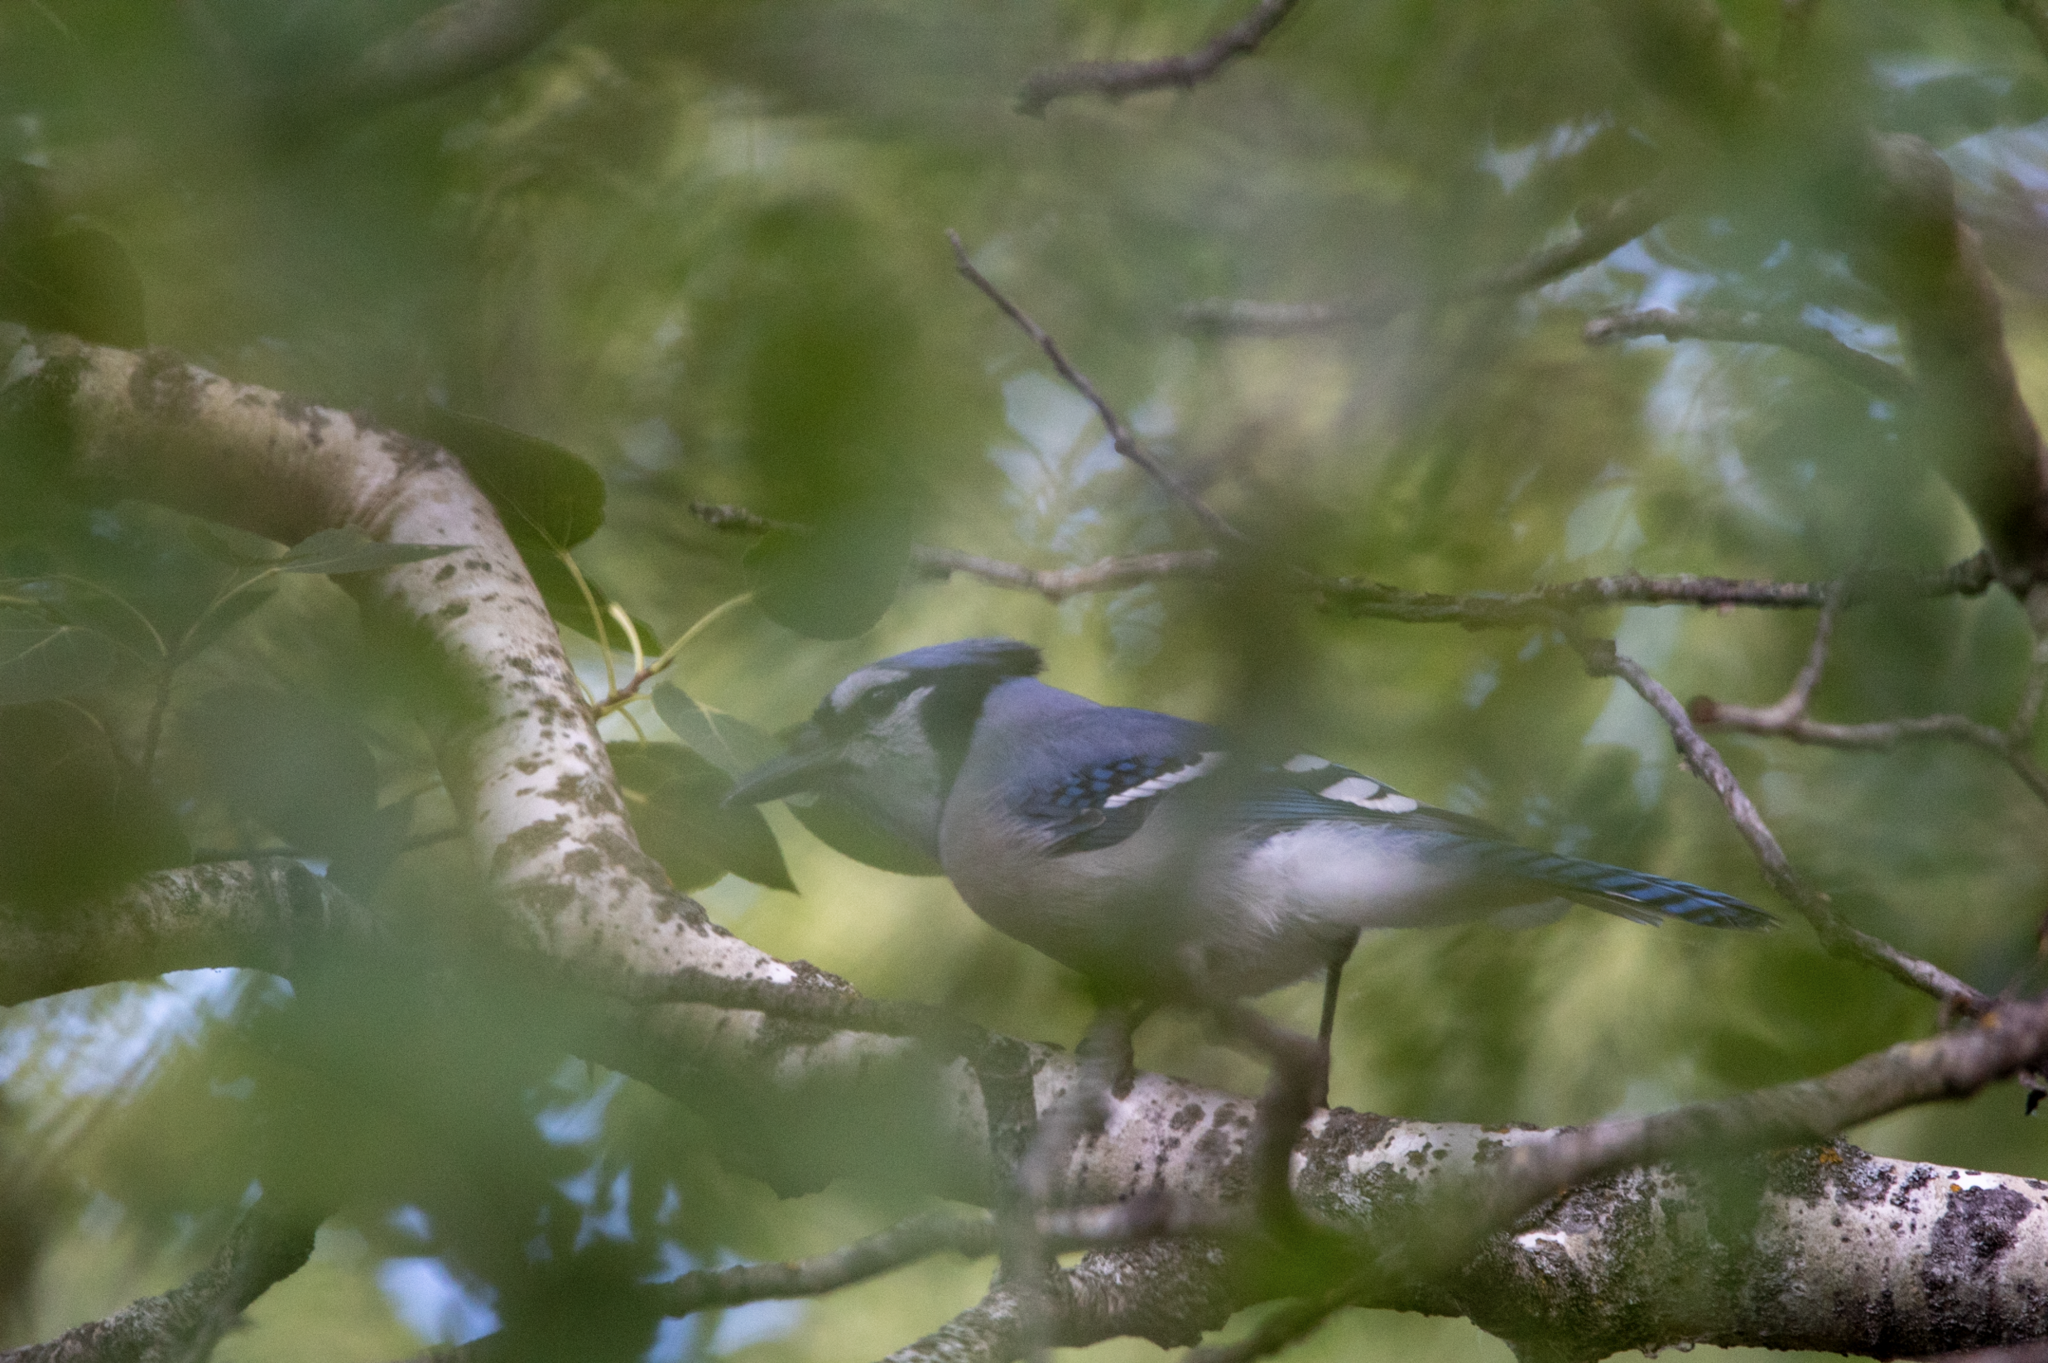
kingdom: Animalia
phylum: Chordata
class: Aves
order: Passeriformes
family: Corvidae
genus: Cyanocitta
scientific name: Cyanocitta cristata
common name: Blue jay
